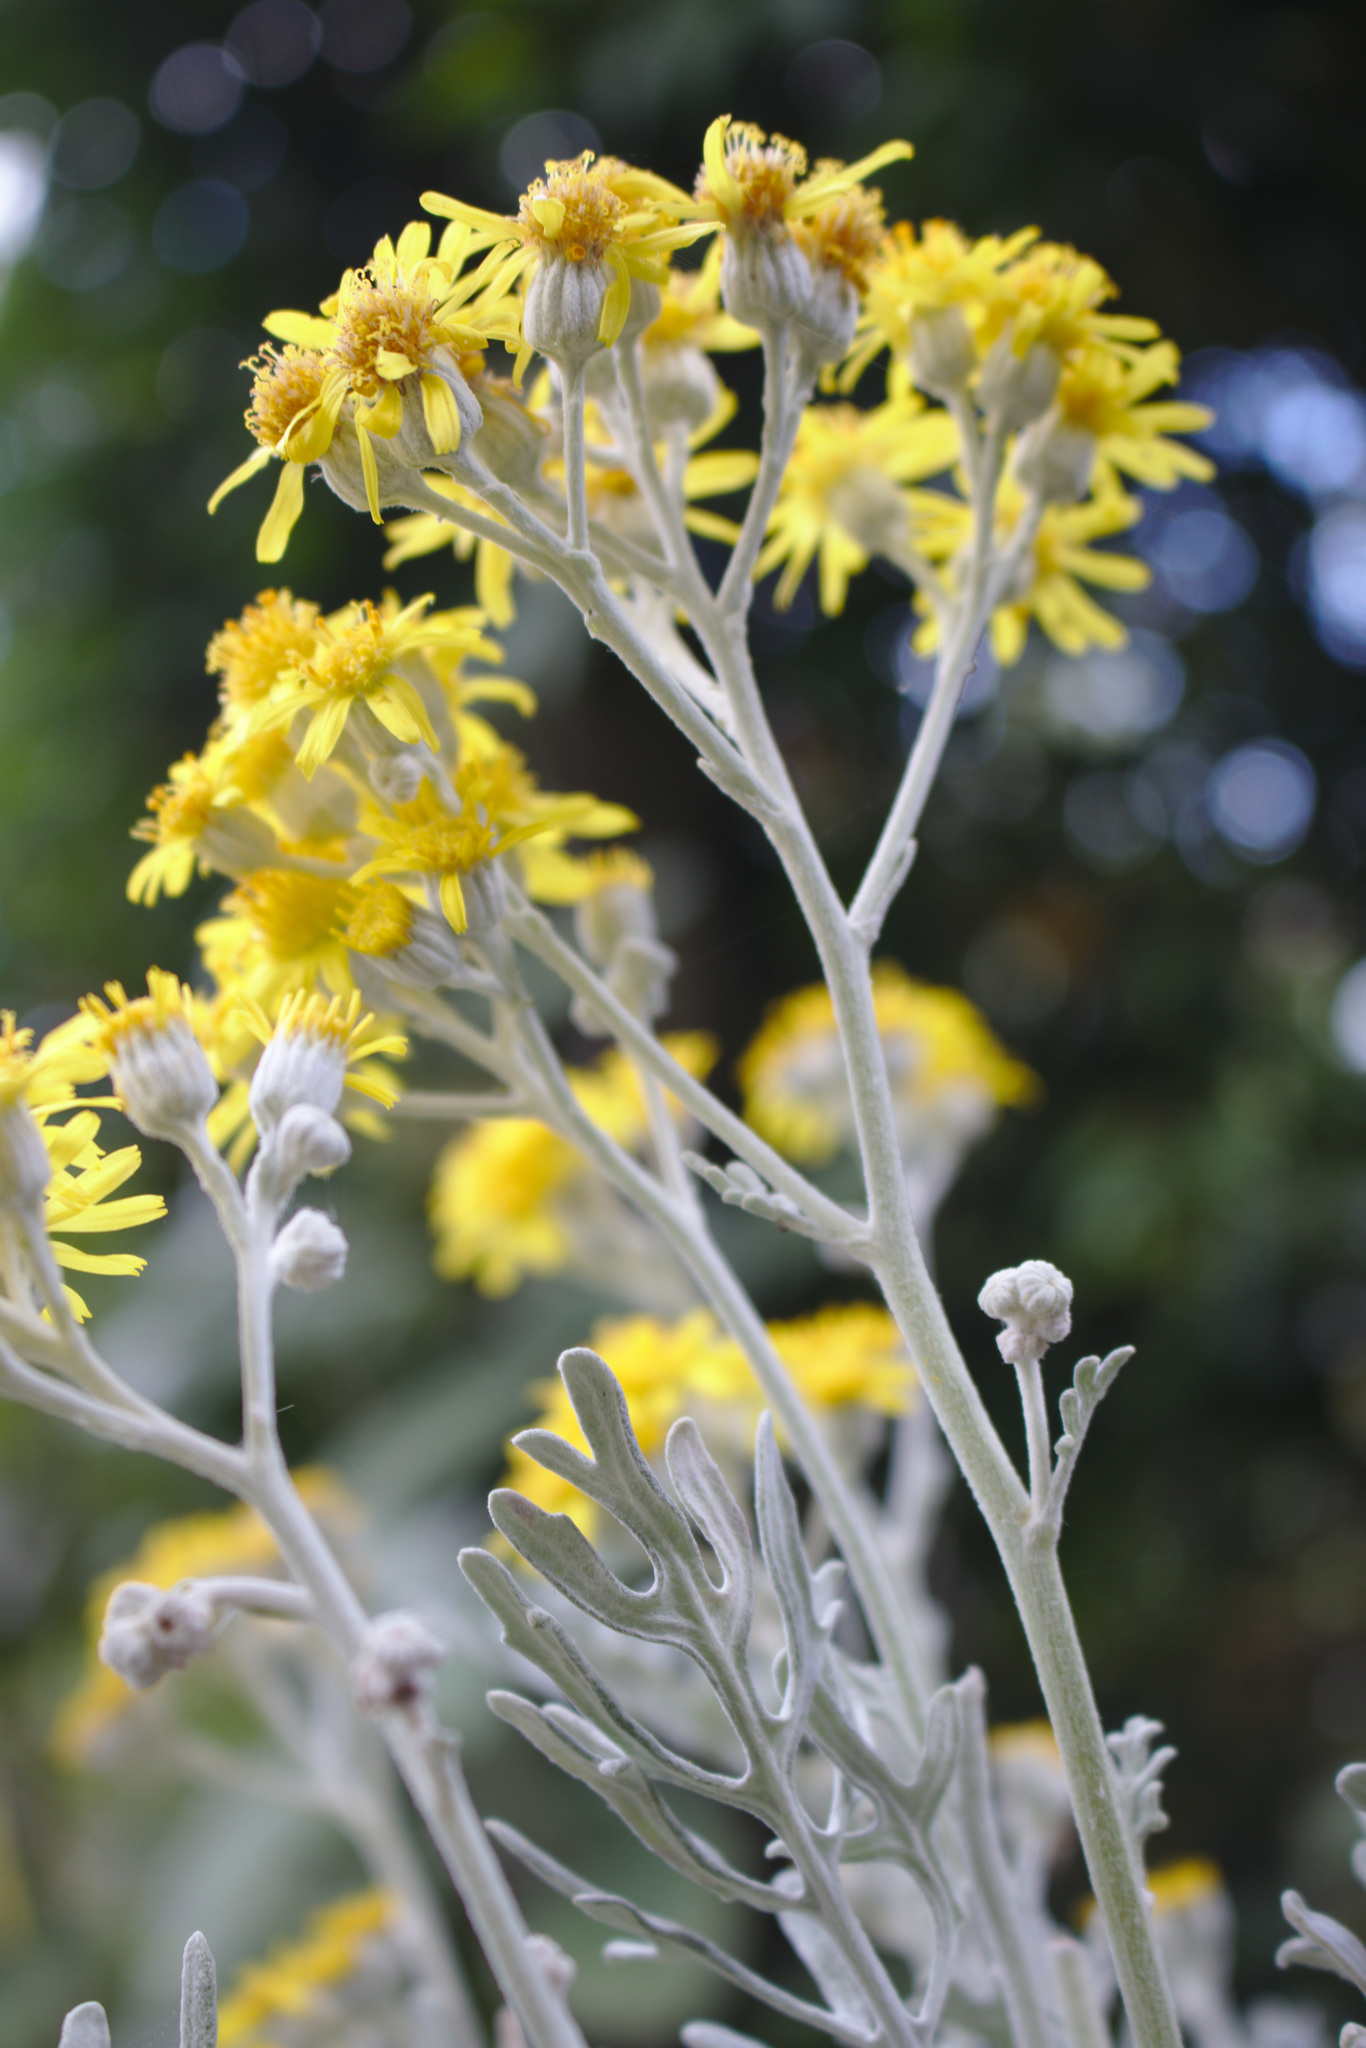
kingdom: Plantae
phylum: Tracheophyta
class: Magnoliopsida
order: Asterales
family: Asteraceae
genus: Jacobaea
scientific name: Jacobaea maritima
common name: Silver ragwort
